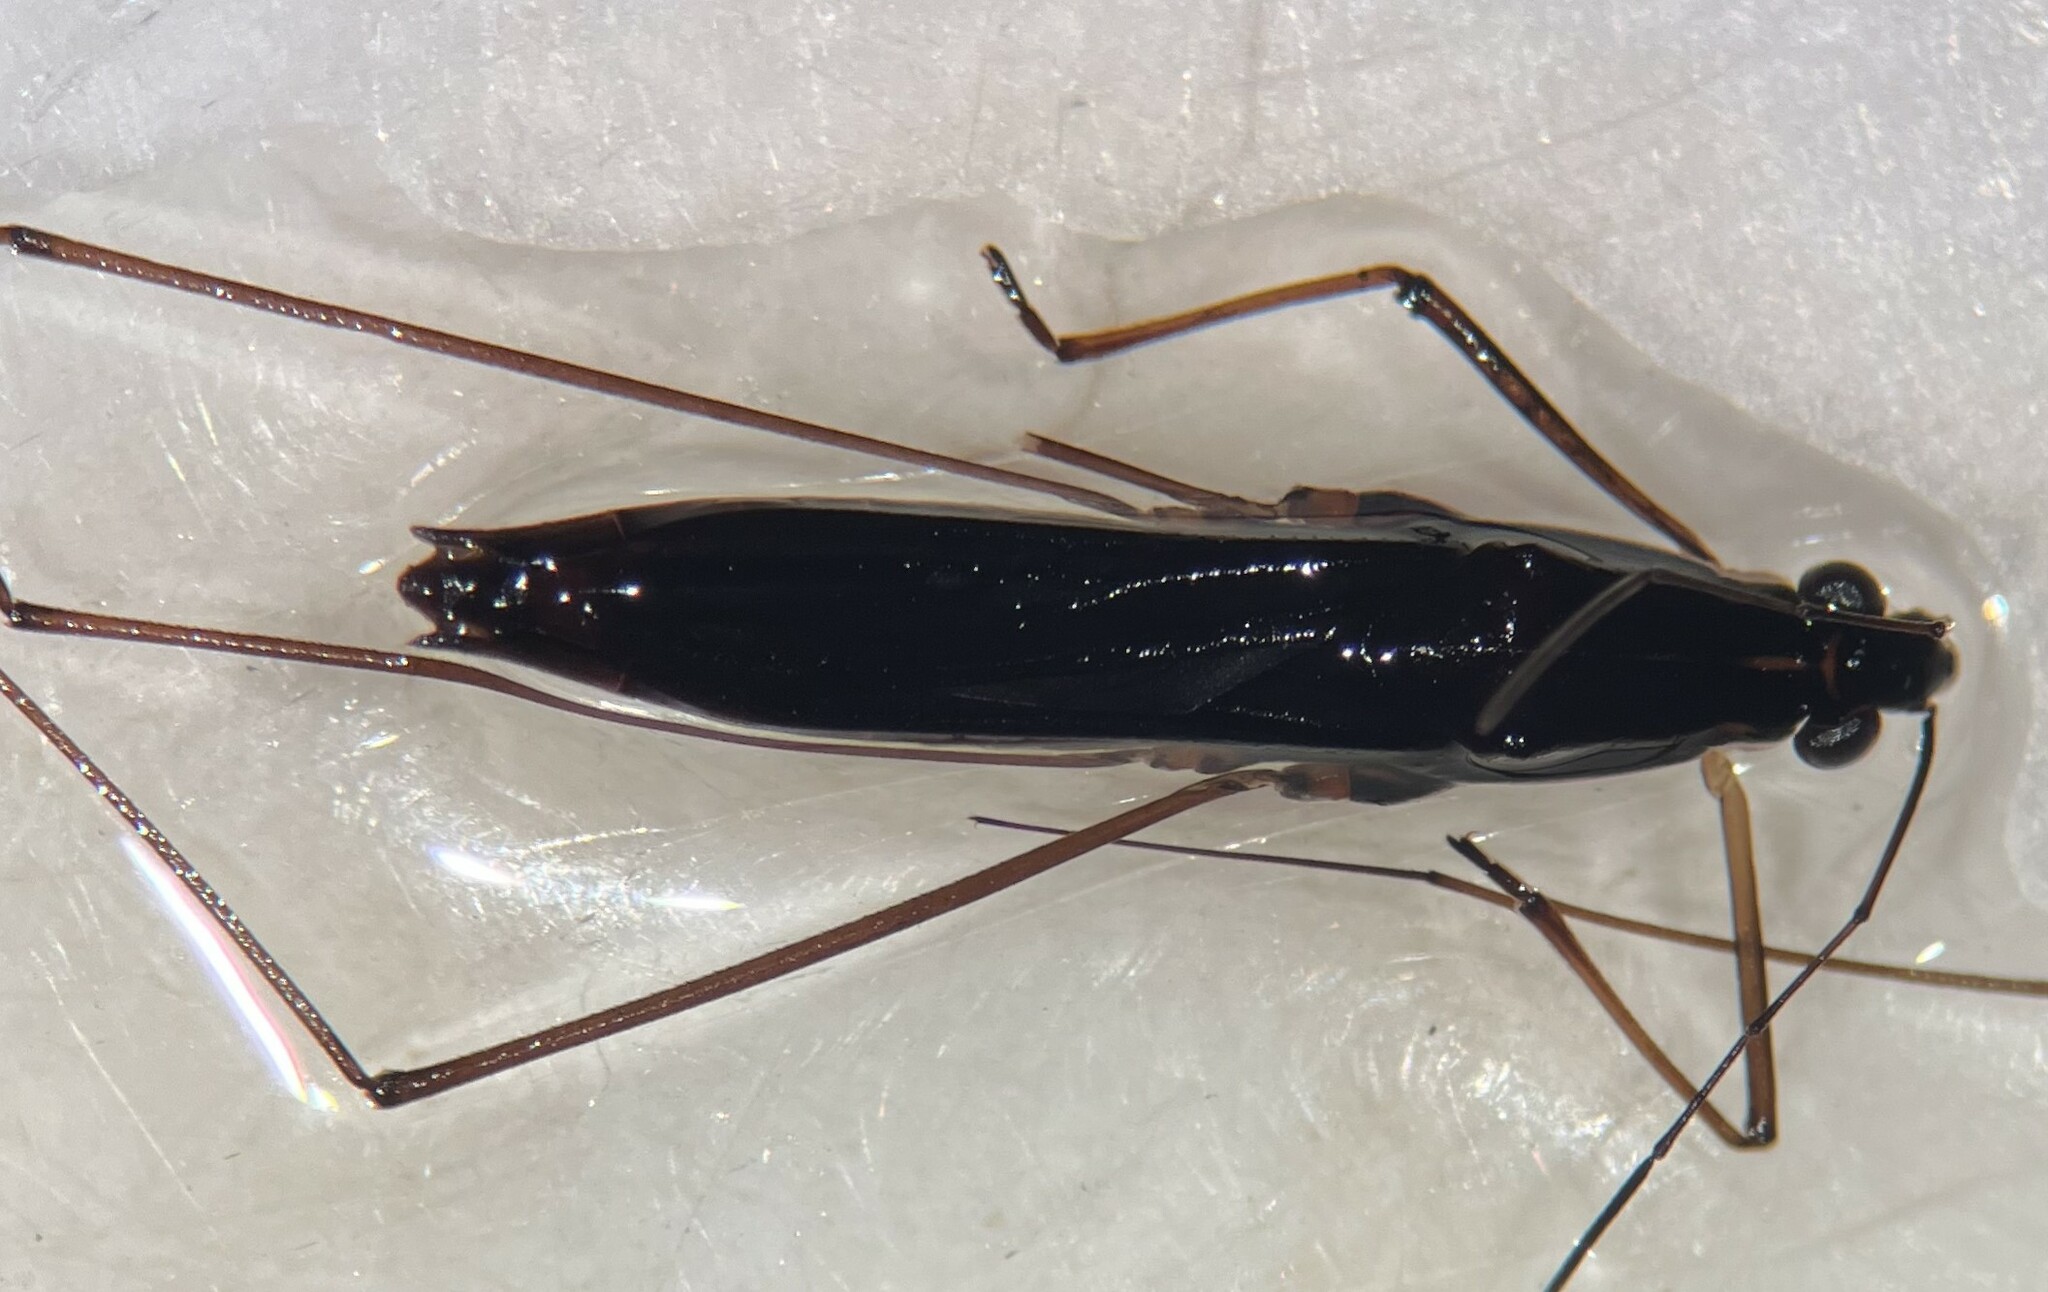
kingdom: Animalia
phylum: Arthropoda
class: Insecta
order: Hemiptera
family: Gerridae
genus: Limnoporus
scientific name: Limnoporus canaliculatus
